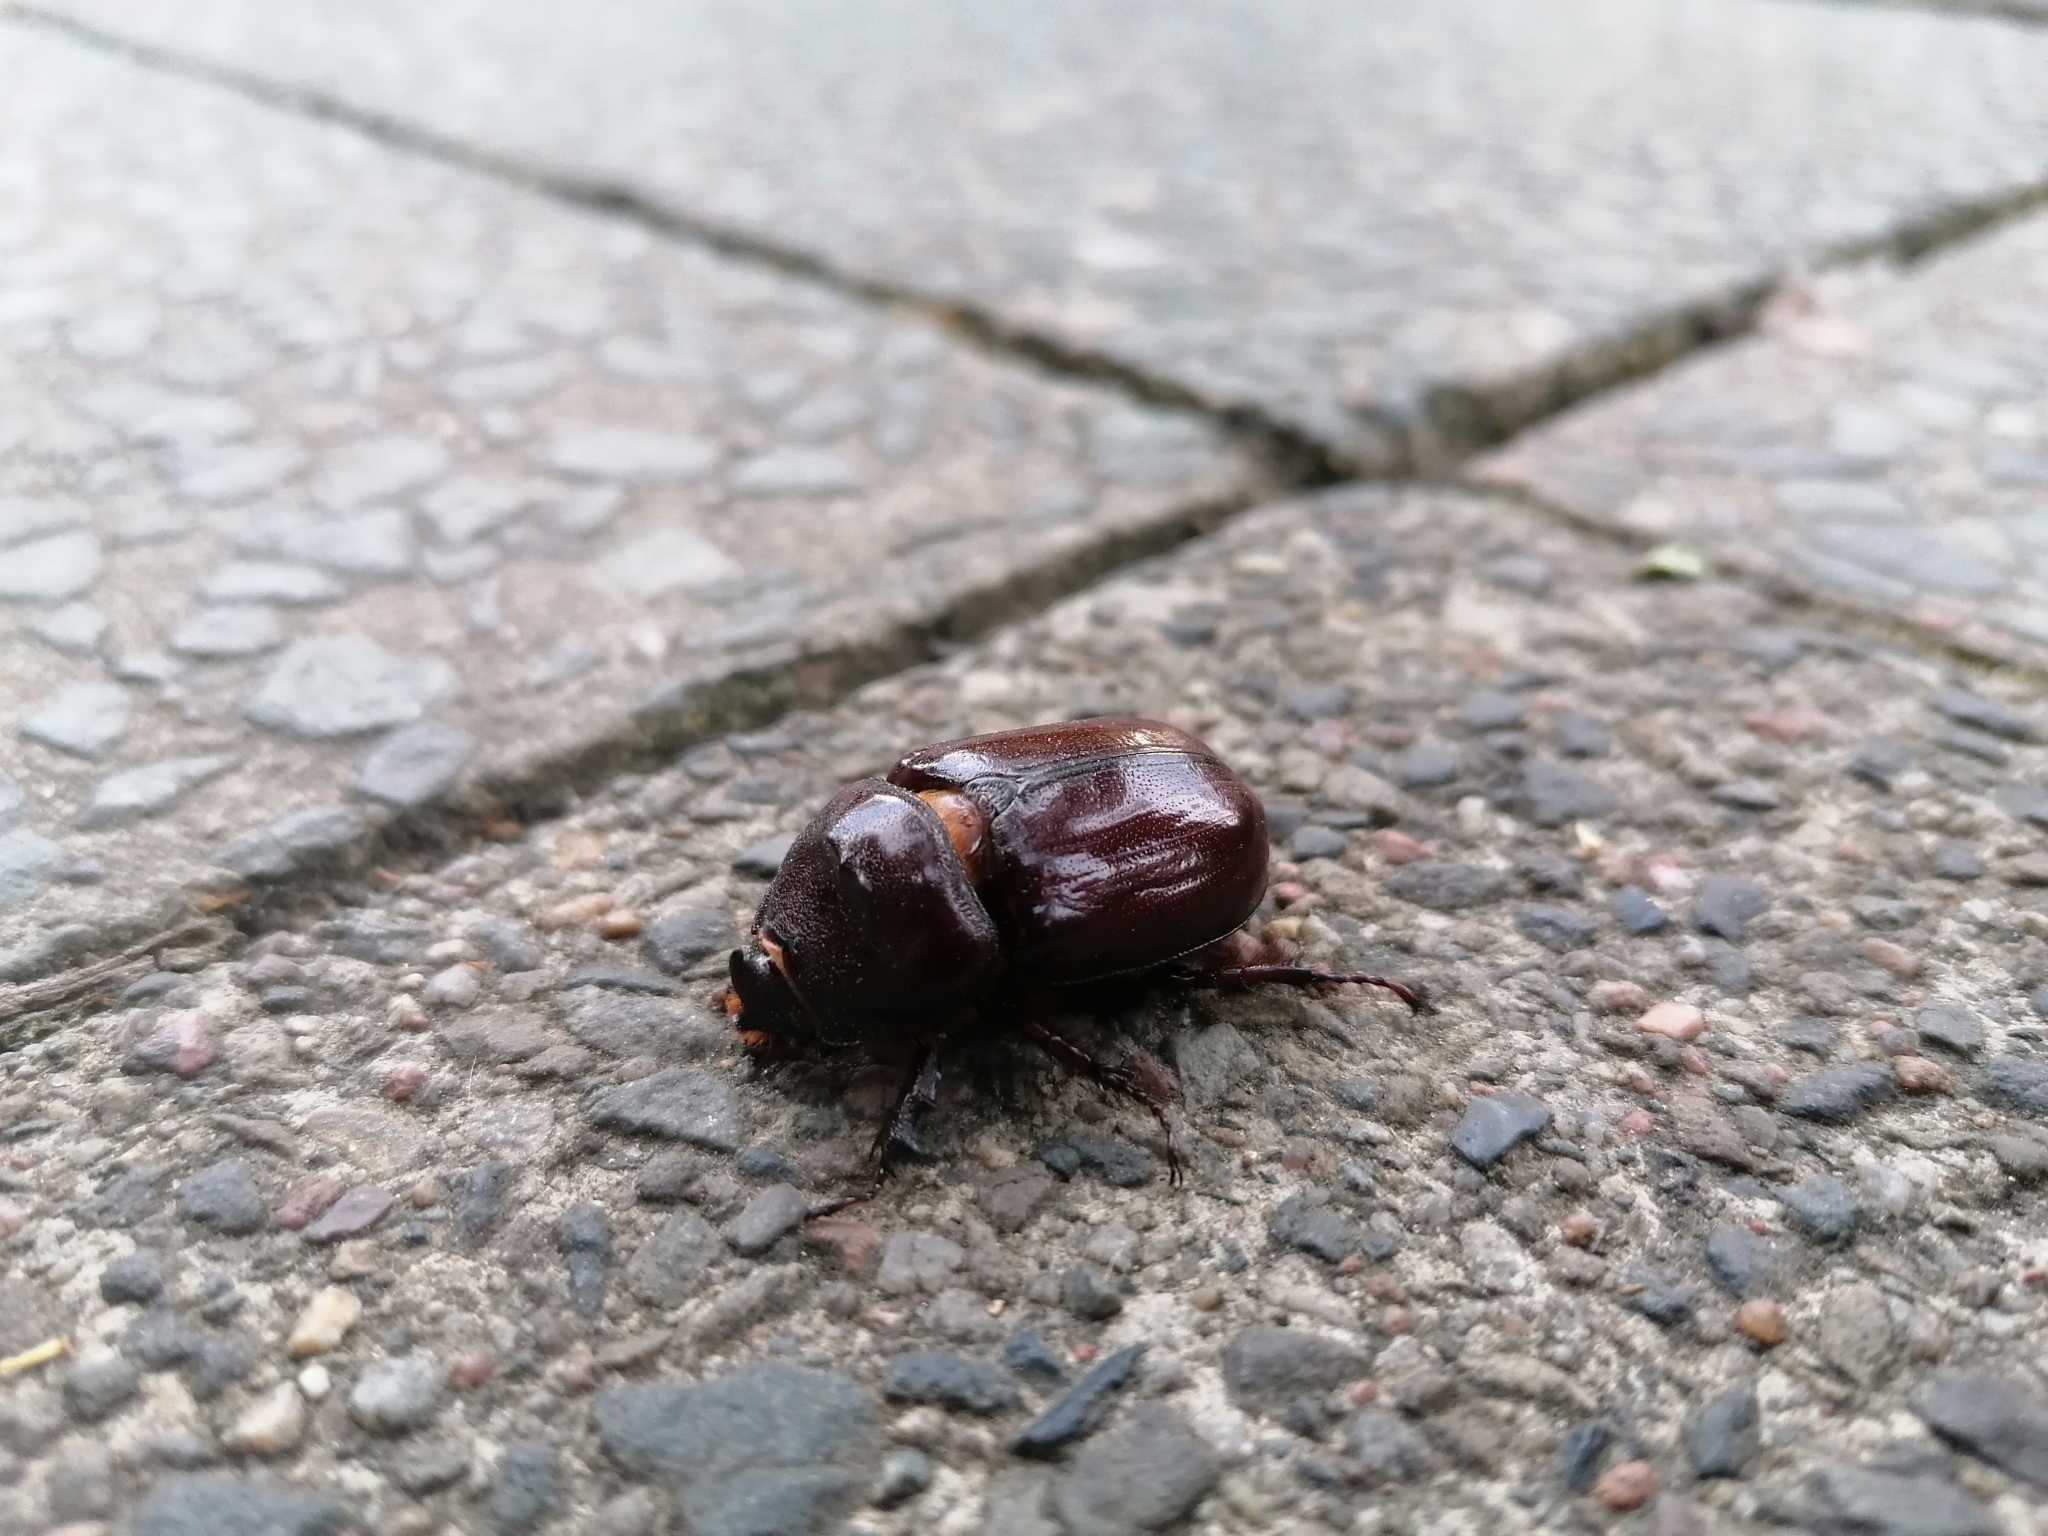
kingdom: Animalia
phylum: Arthropoda
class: Insecta
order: Coleoptera
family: Scarabaeidae
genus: Oryctes
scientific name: Oryctes nasicornis
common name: European rhinoceros beetle
